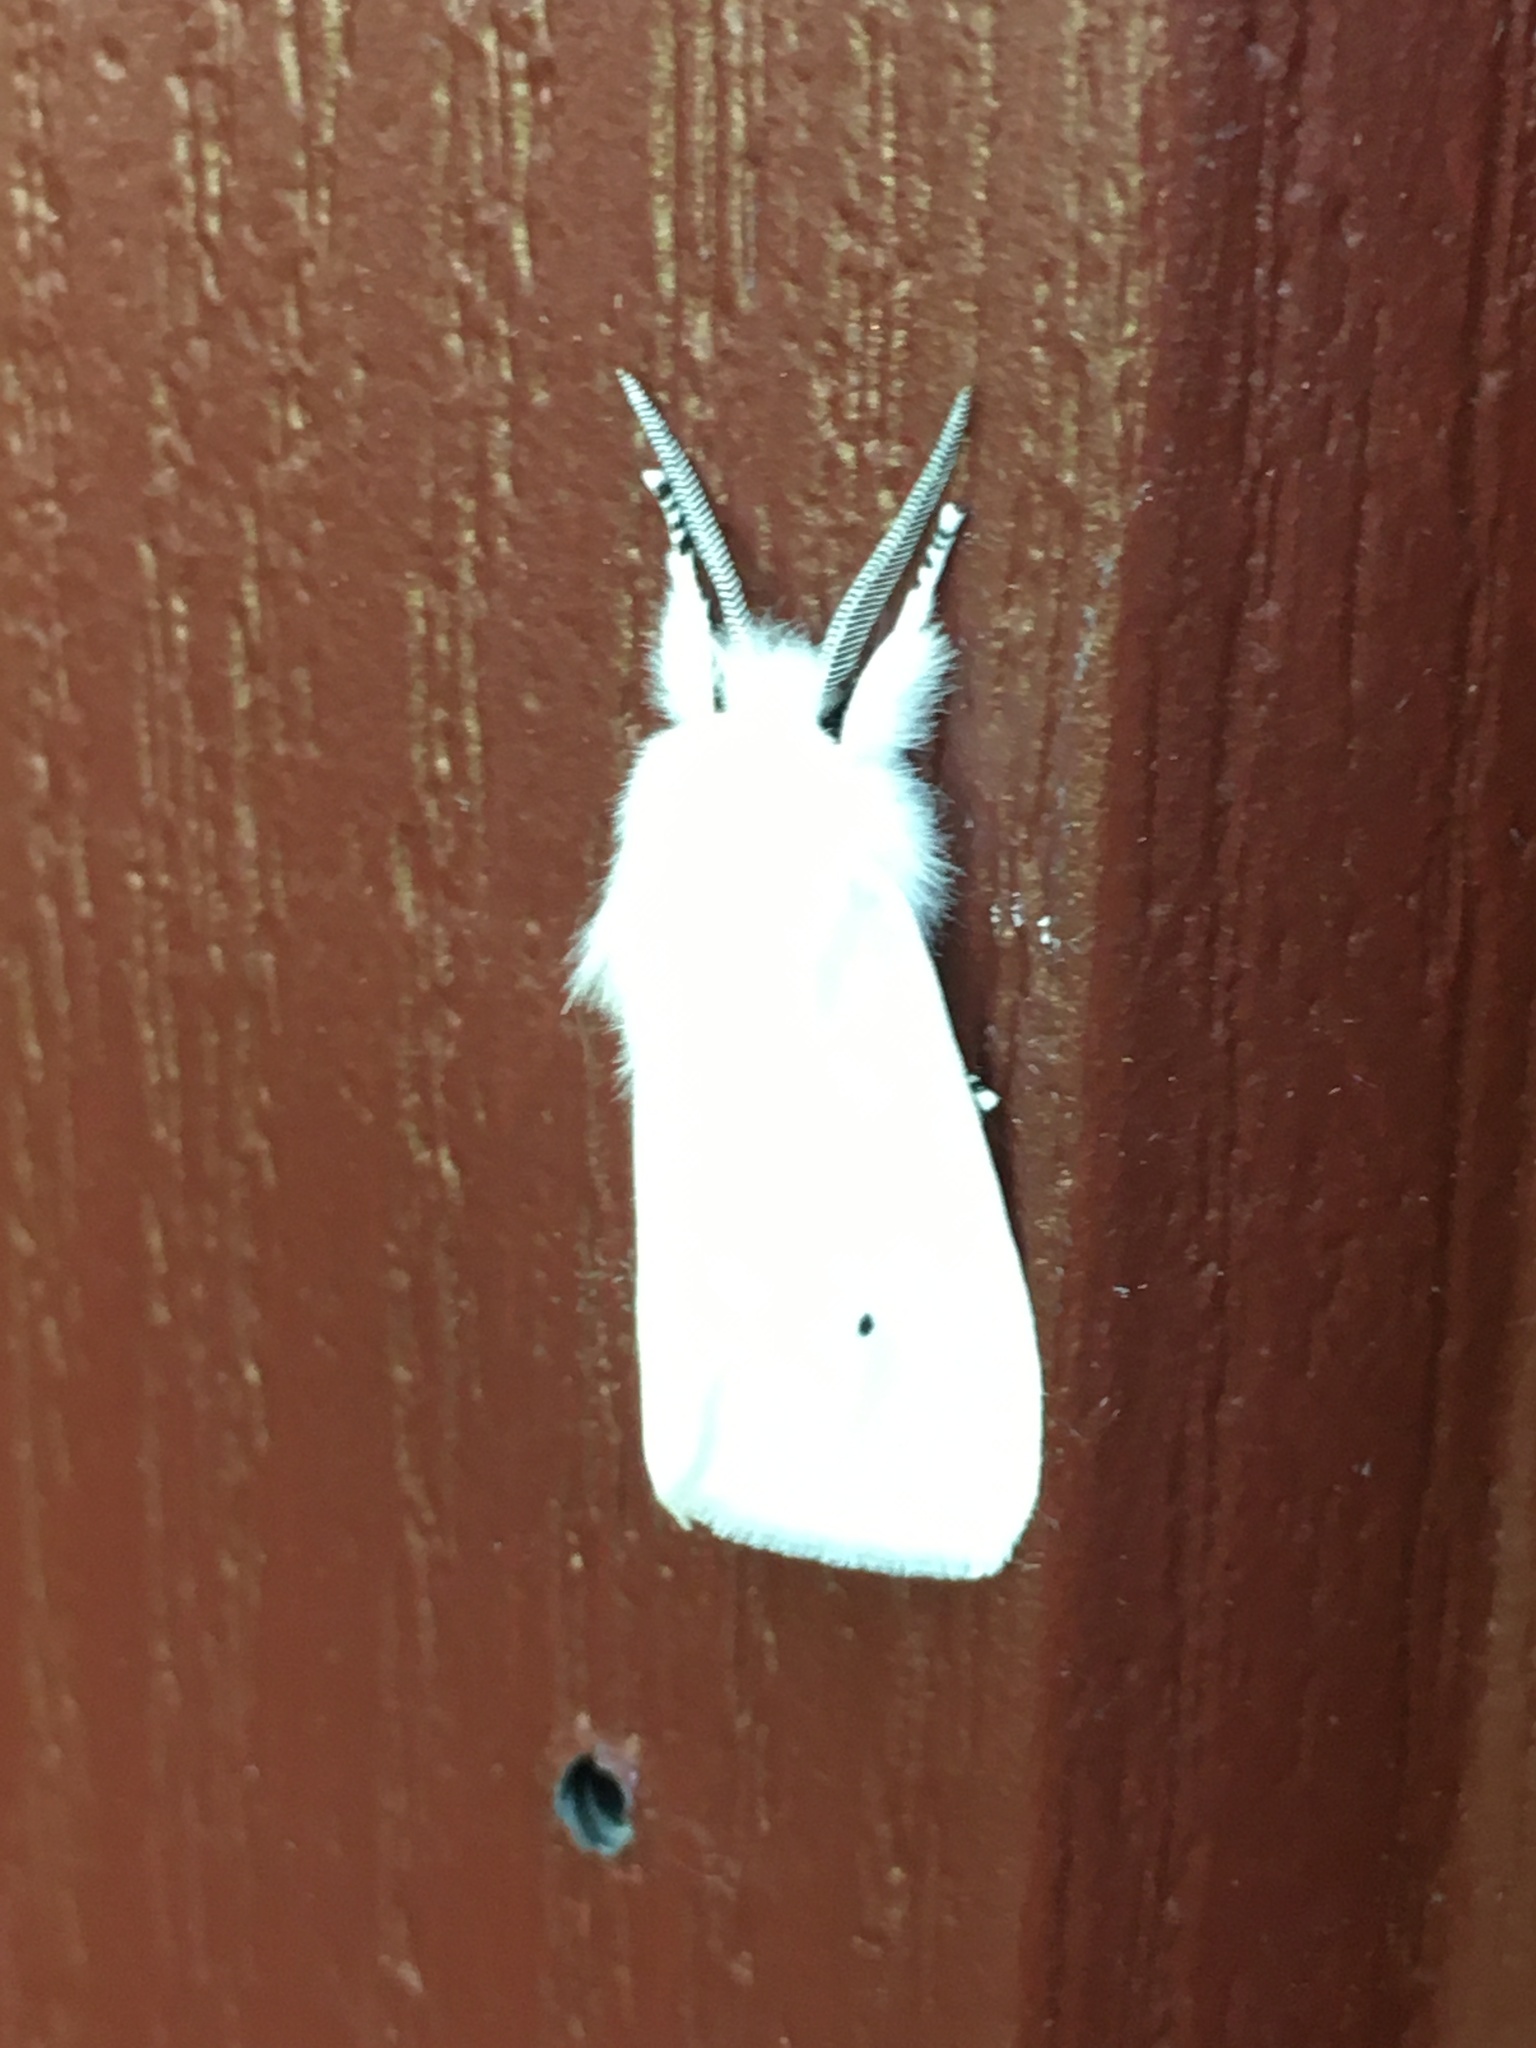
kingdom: Animalia
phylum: Arthropoda
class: Insecta
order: Lepidoptera
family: Erebidae
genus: Spilosoma
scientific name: Spilosoma virginica
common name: Virginia tiger moth
